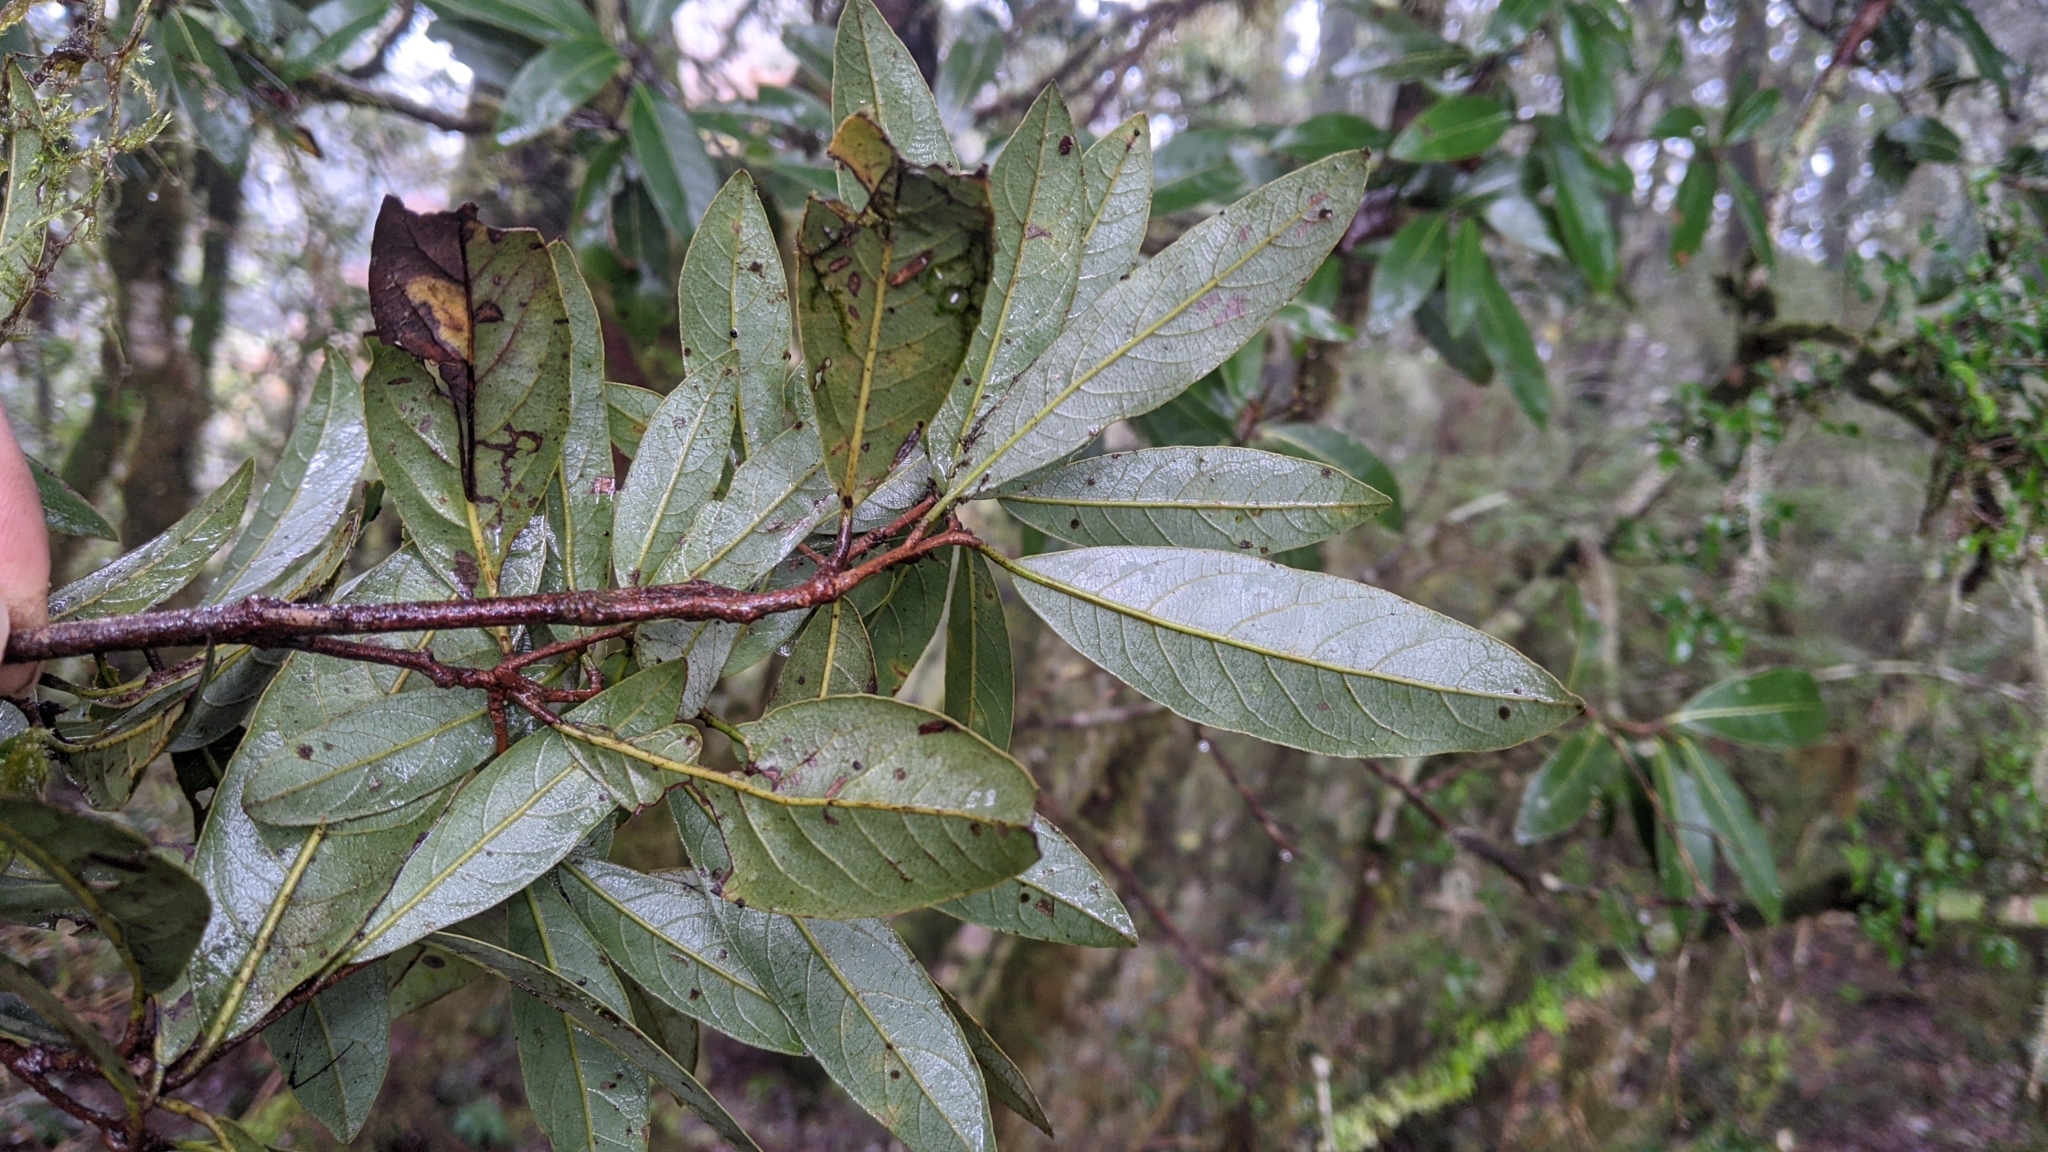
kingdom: Plantae
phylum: Tracheophyta
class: Magnoliopsida
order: Laurales
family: Lauraceae
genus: Litsea
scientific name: Litsea morrisonensis
